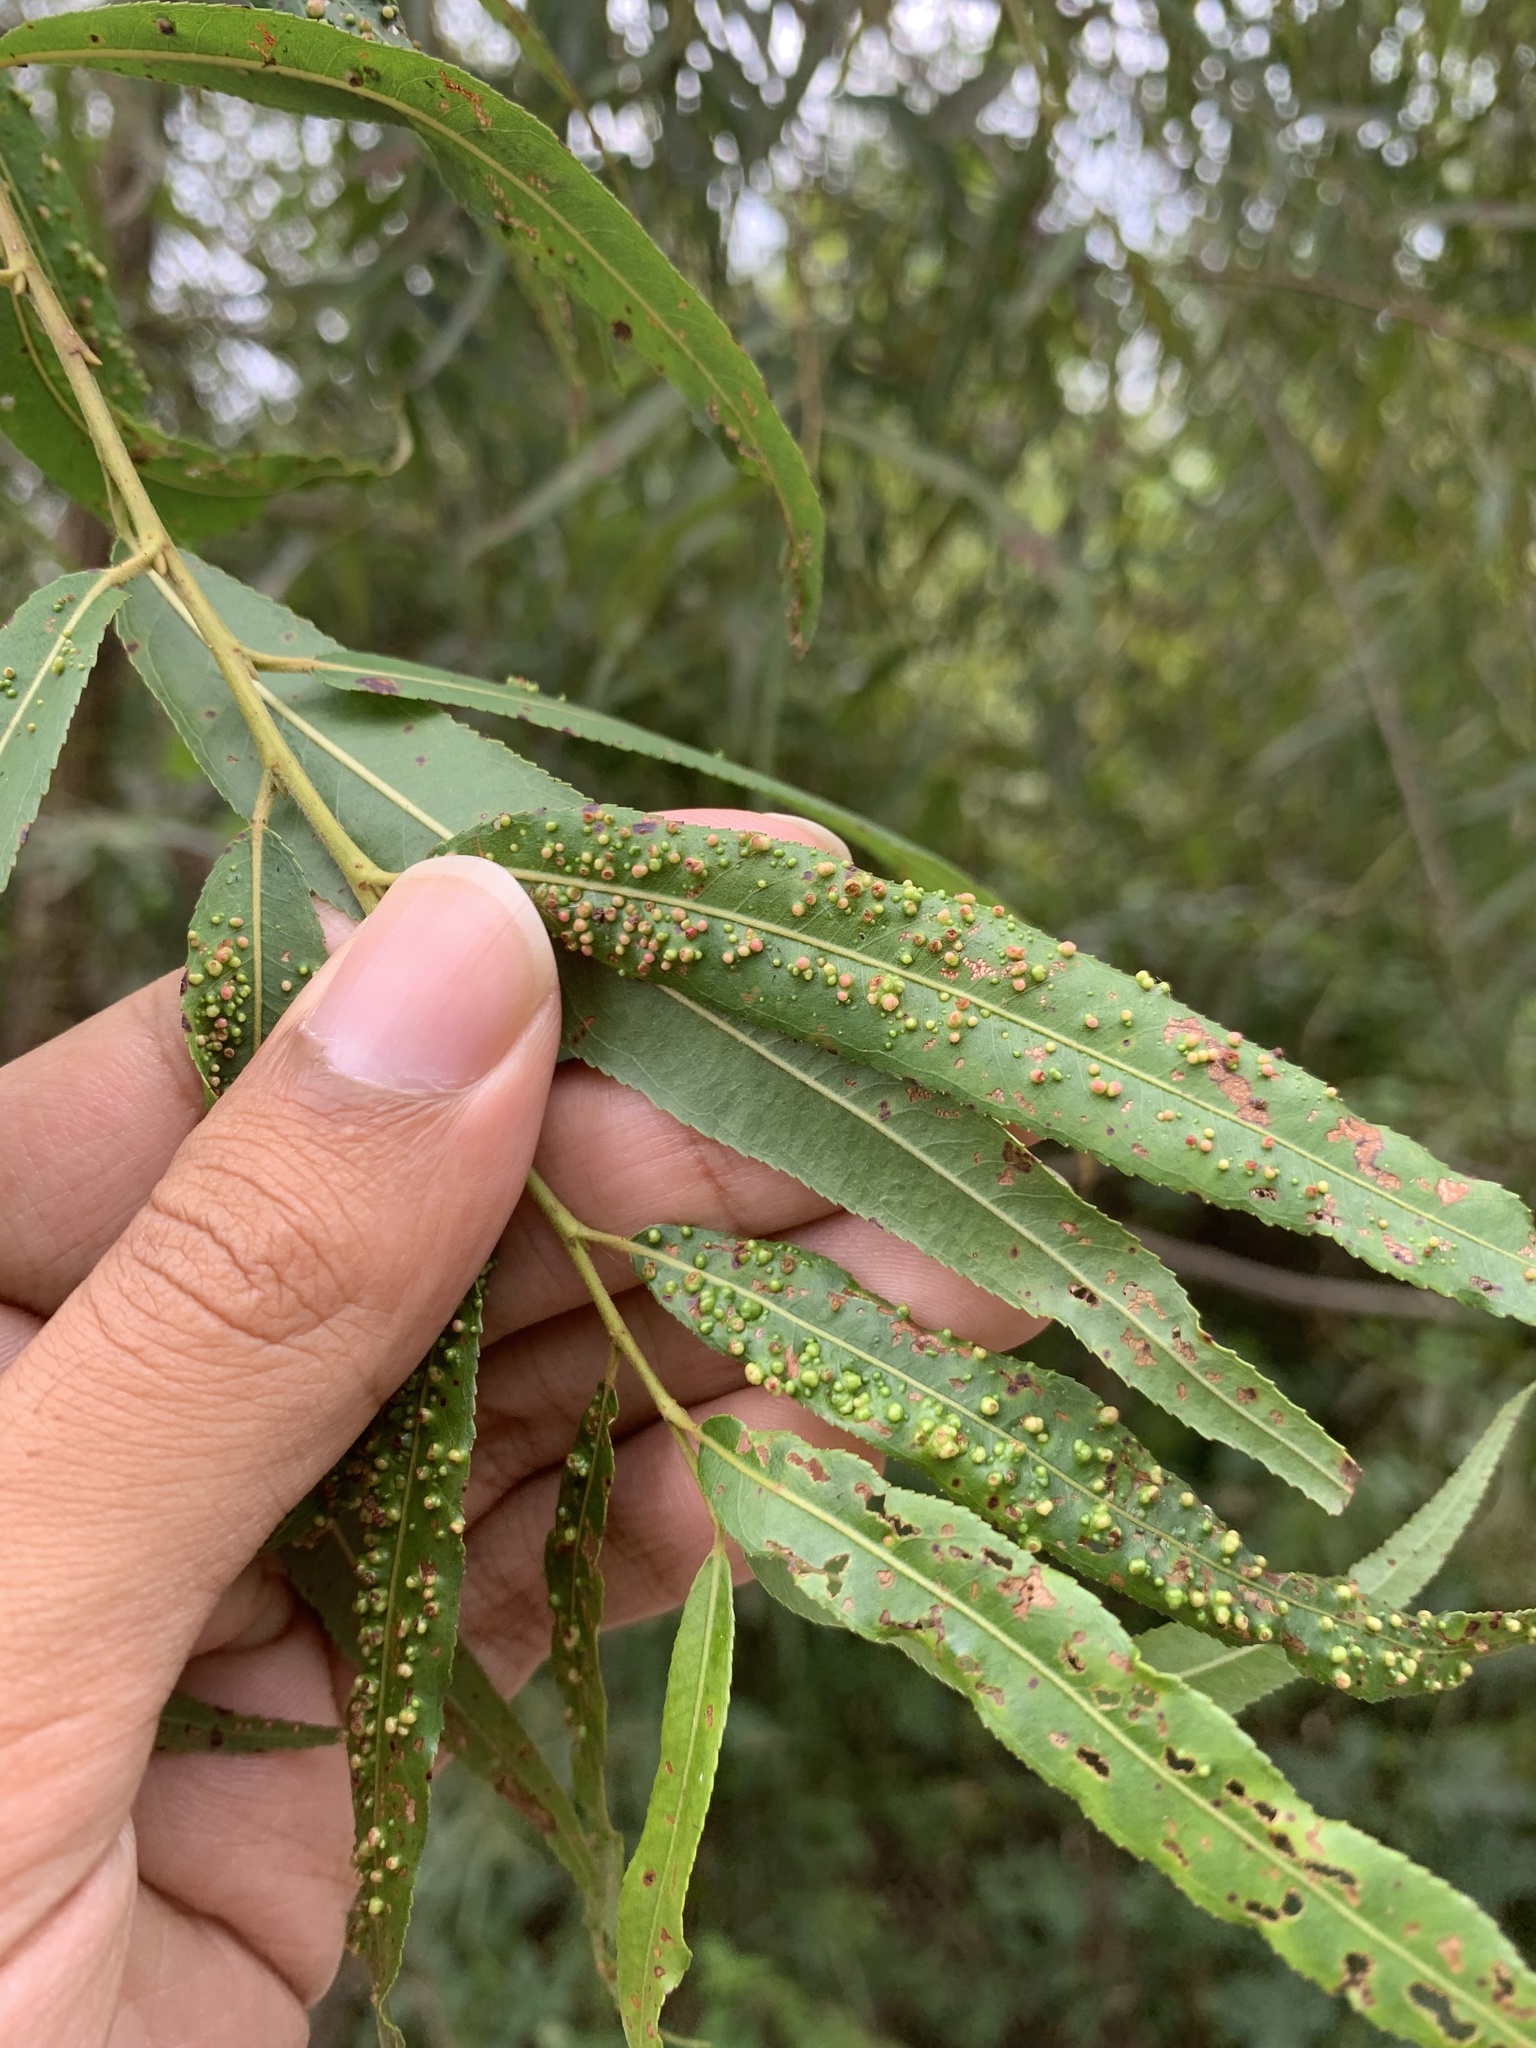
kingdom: Animalia
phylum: Arthropoda
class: Arachnida
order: Trombidiformes
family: Eriophyidae
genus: Aculus
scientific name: Aculus tetanothrix
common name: Willow bead gall mite
